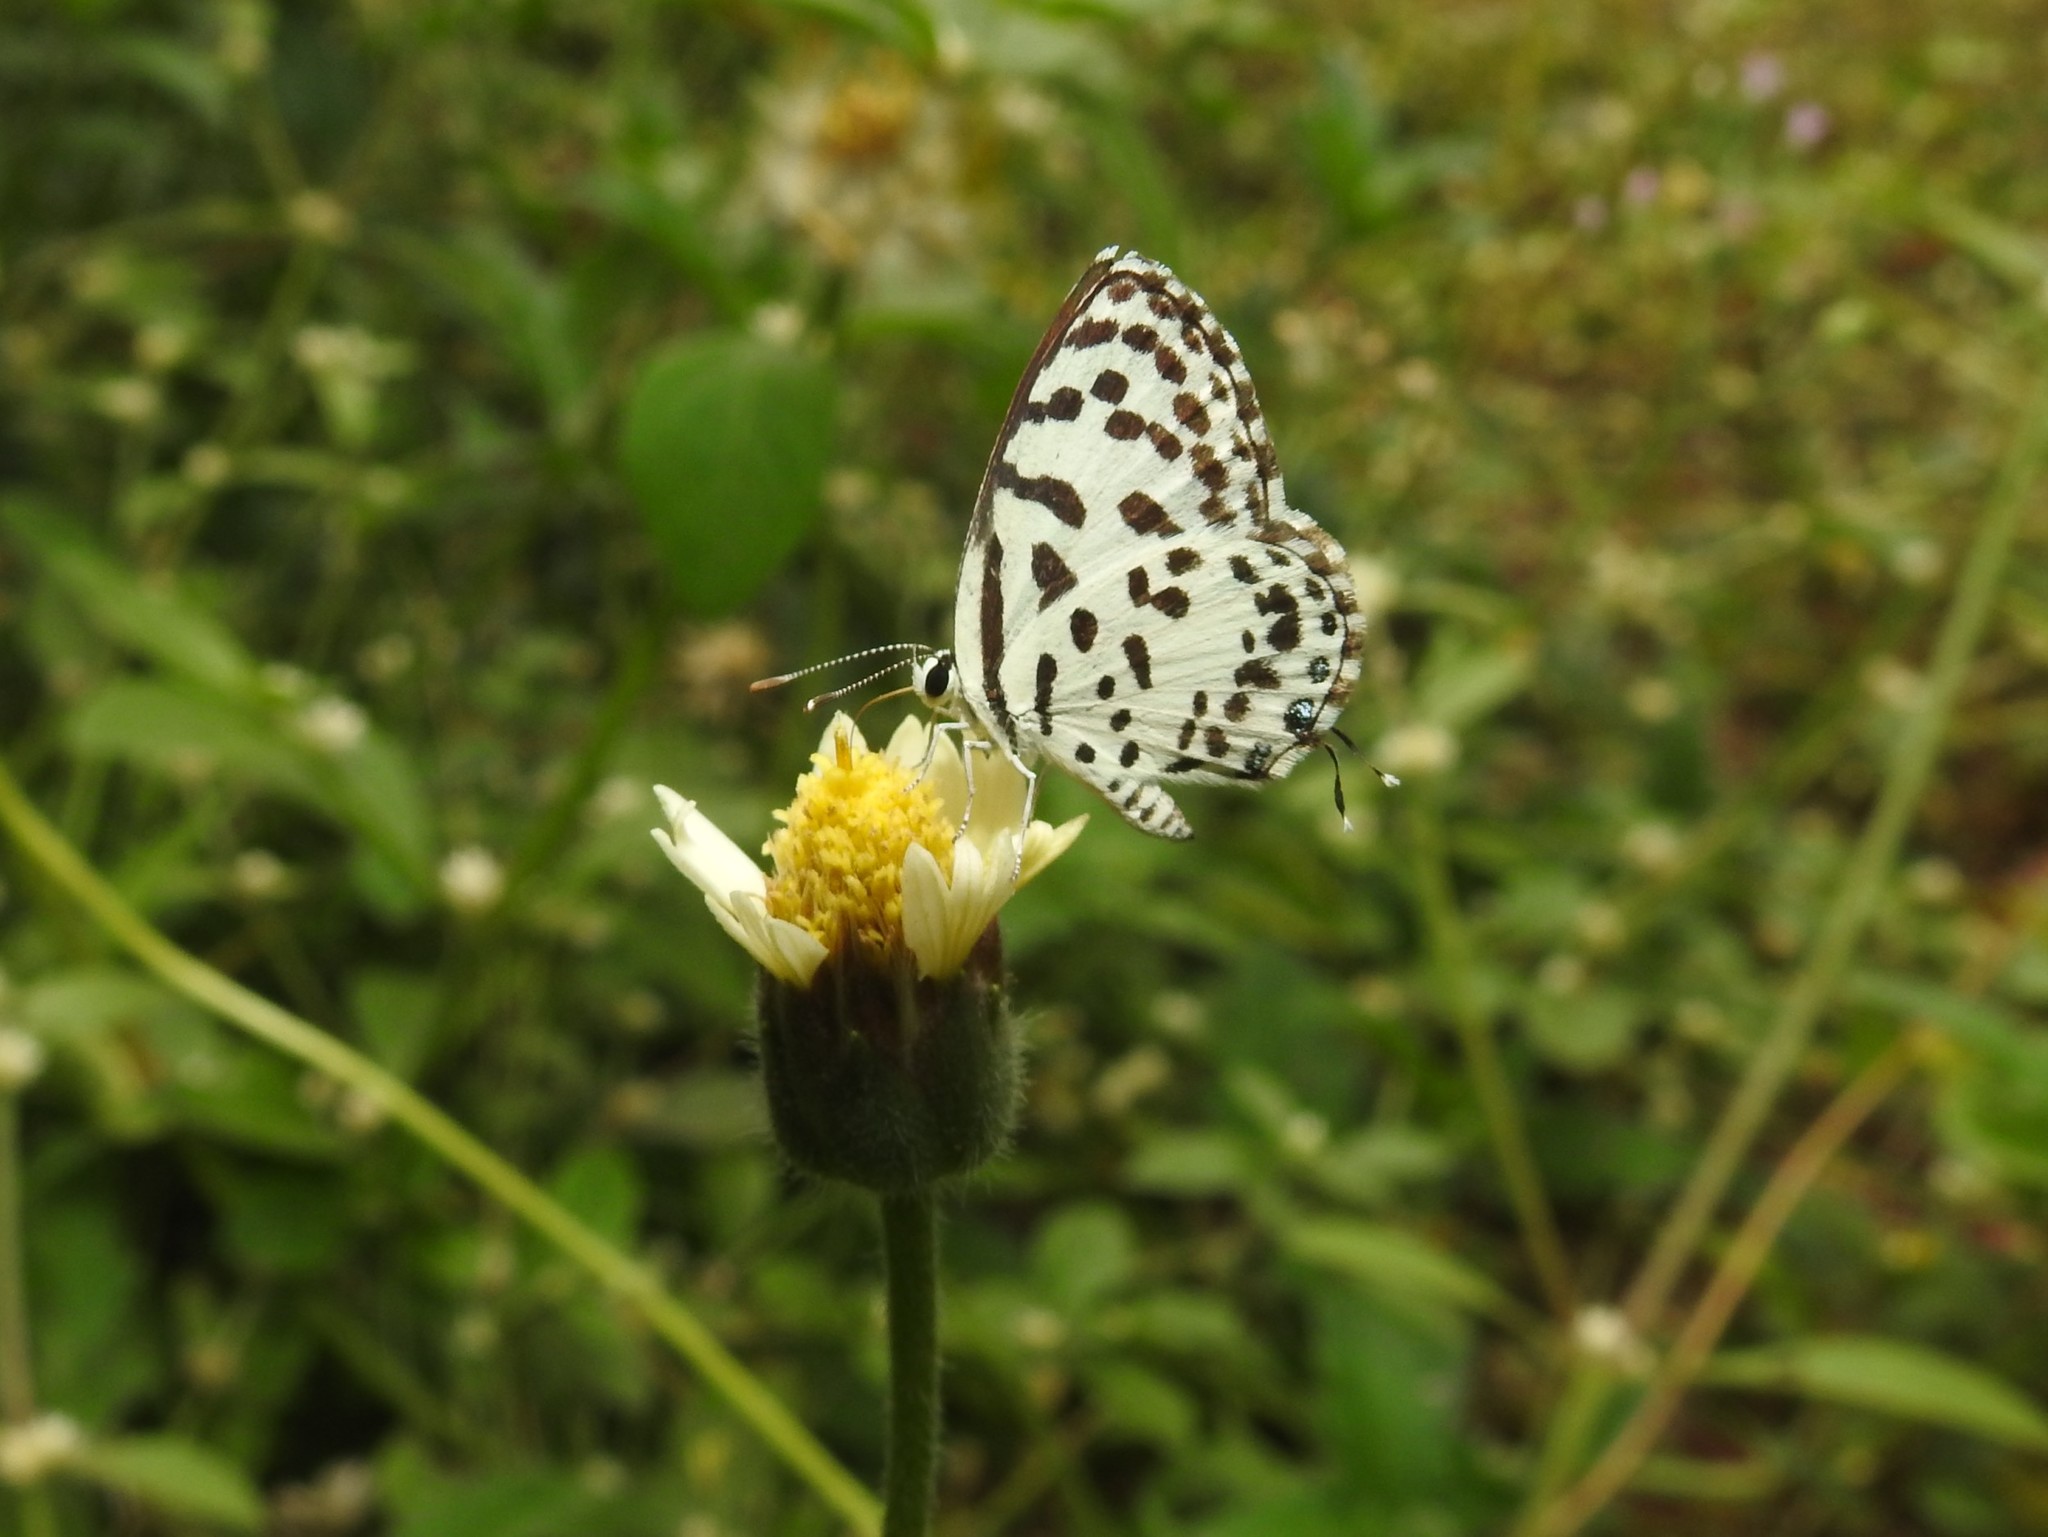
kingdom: Animalia
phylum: Arthropoda
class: Insecta
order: Lepidoptera
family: Lycaenidae
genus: Castalius
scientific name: Castalius rosimon
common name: Common pierrot
